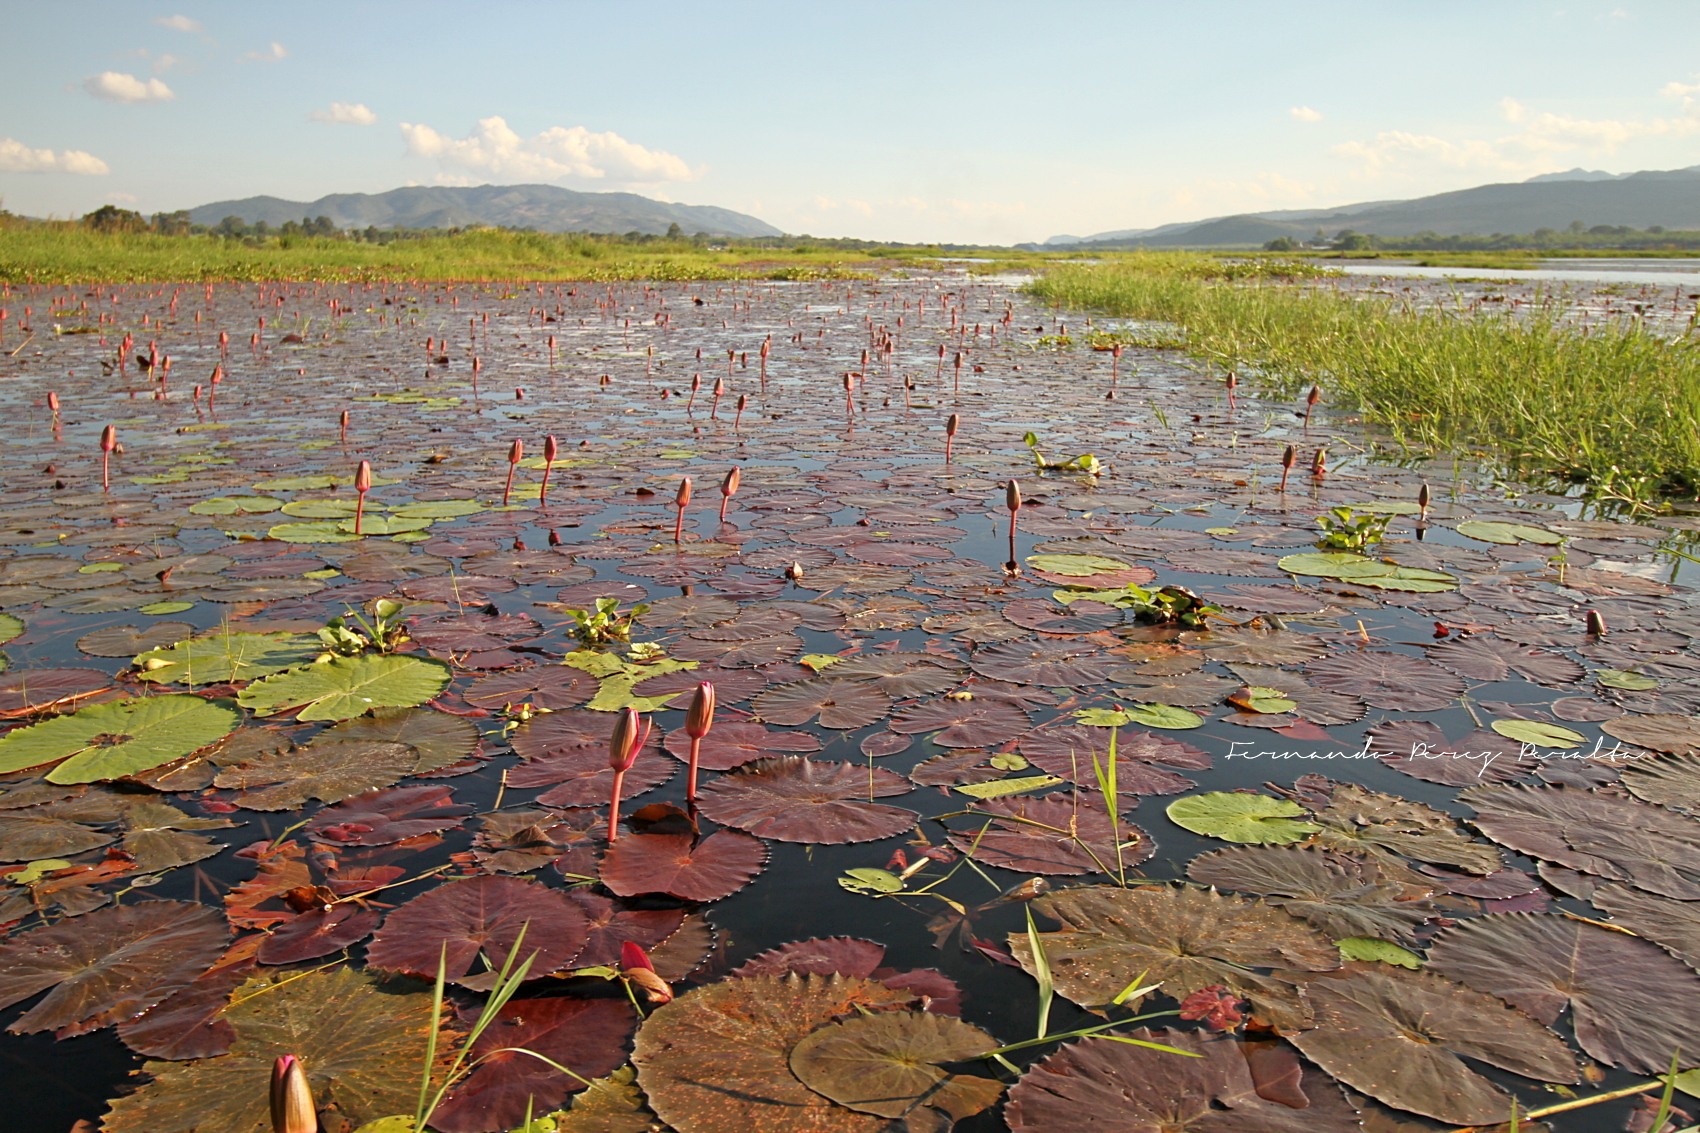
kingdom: Plantae
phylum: Tracheophyta
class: Magnoliopsida
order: Nymphaeales
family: Nymphaeaceae
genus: Nymphaea
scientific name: Nymphaea rubra
